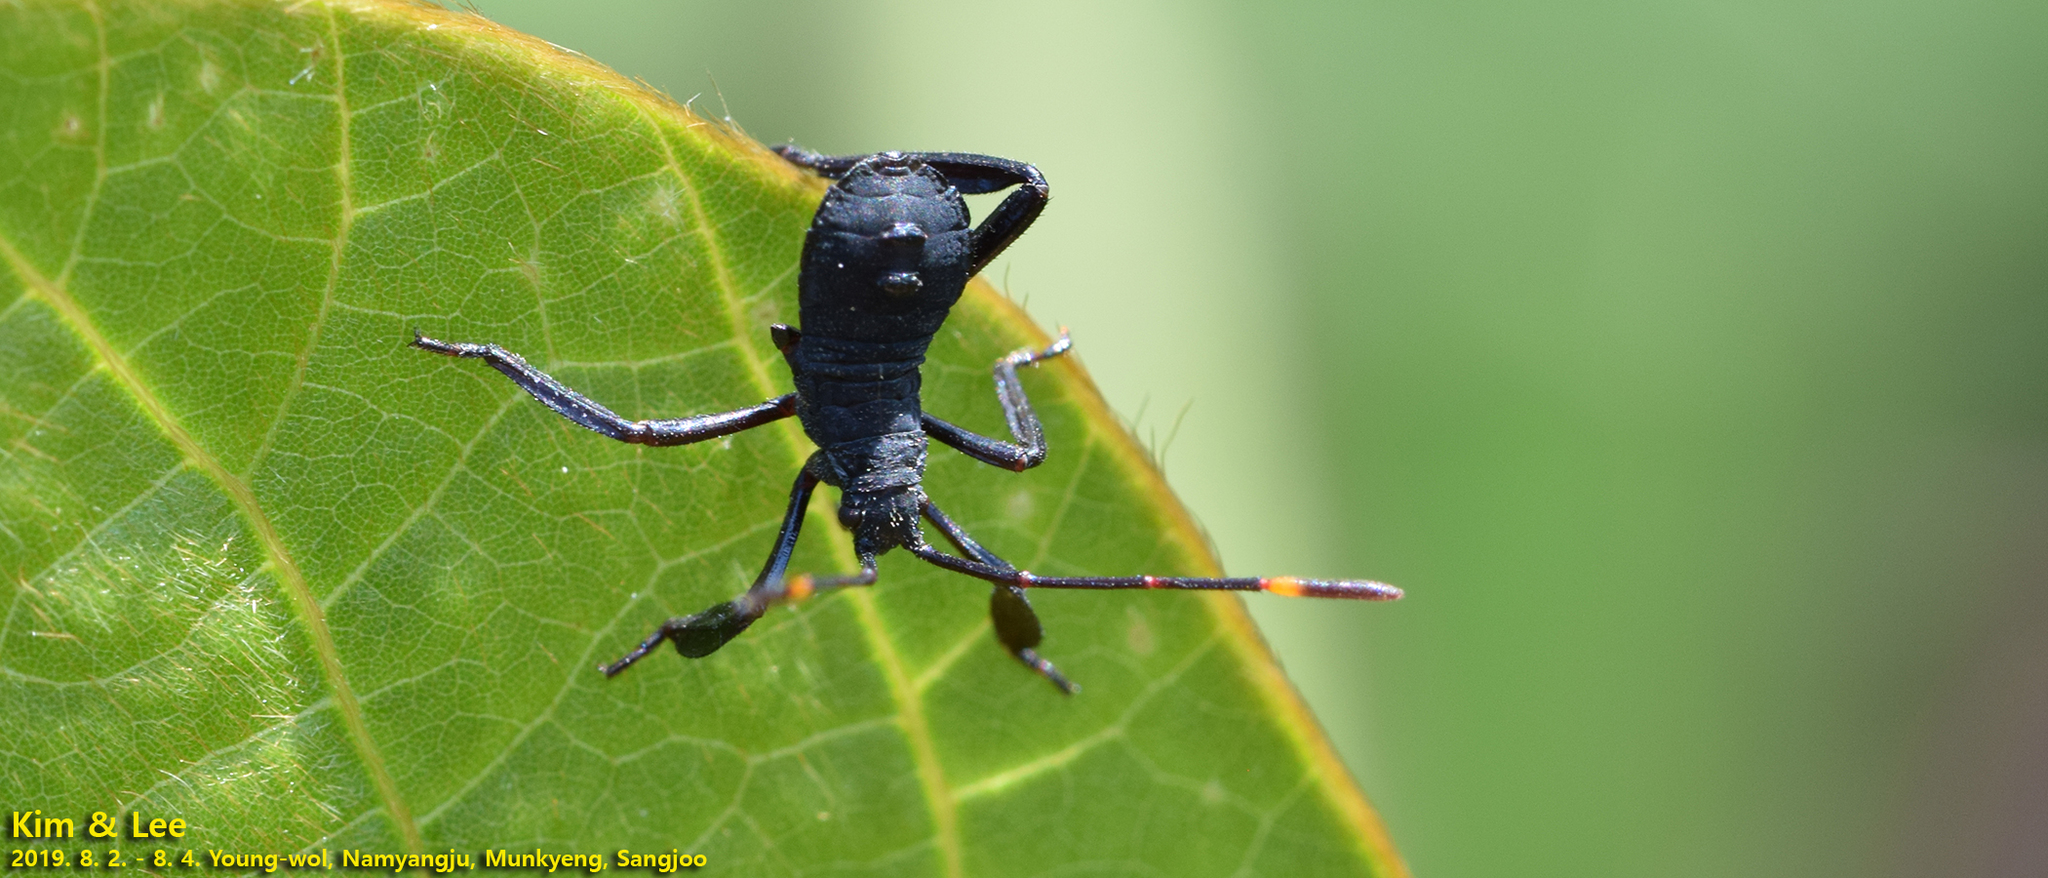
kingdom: Animalia
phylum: Arthropoda
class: Insecta
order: Hemiptera
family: Coreidae
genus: Anoplocnemis
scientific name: Anoplocnemis dallasi
